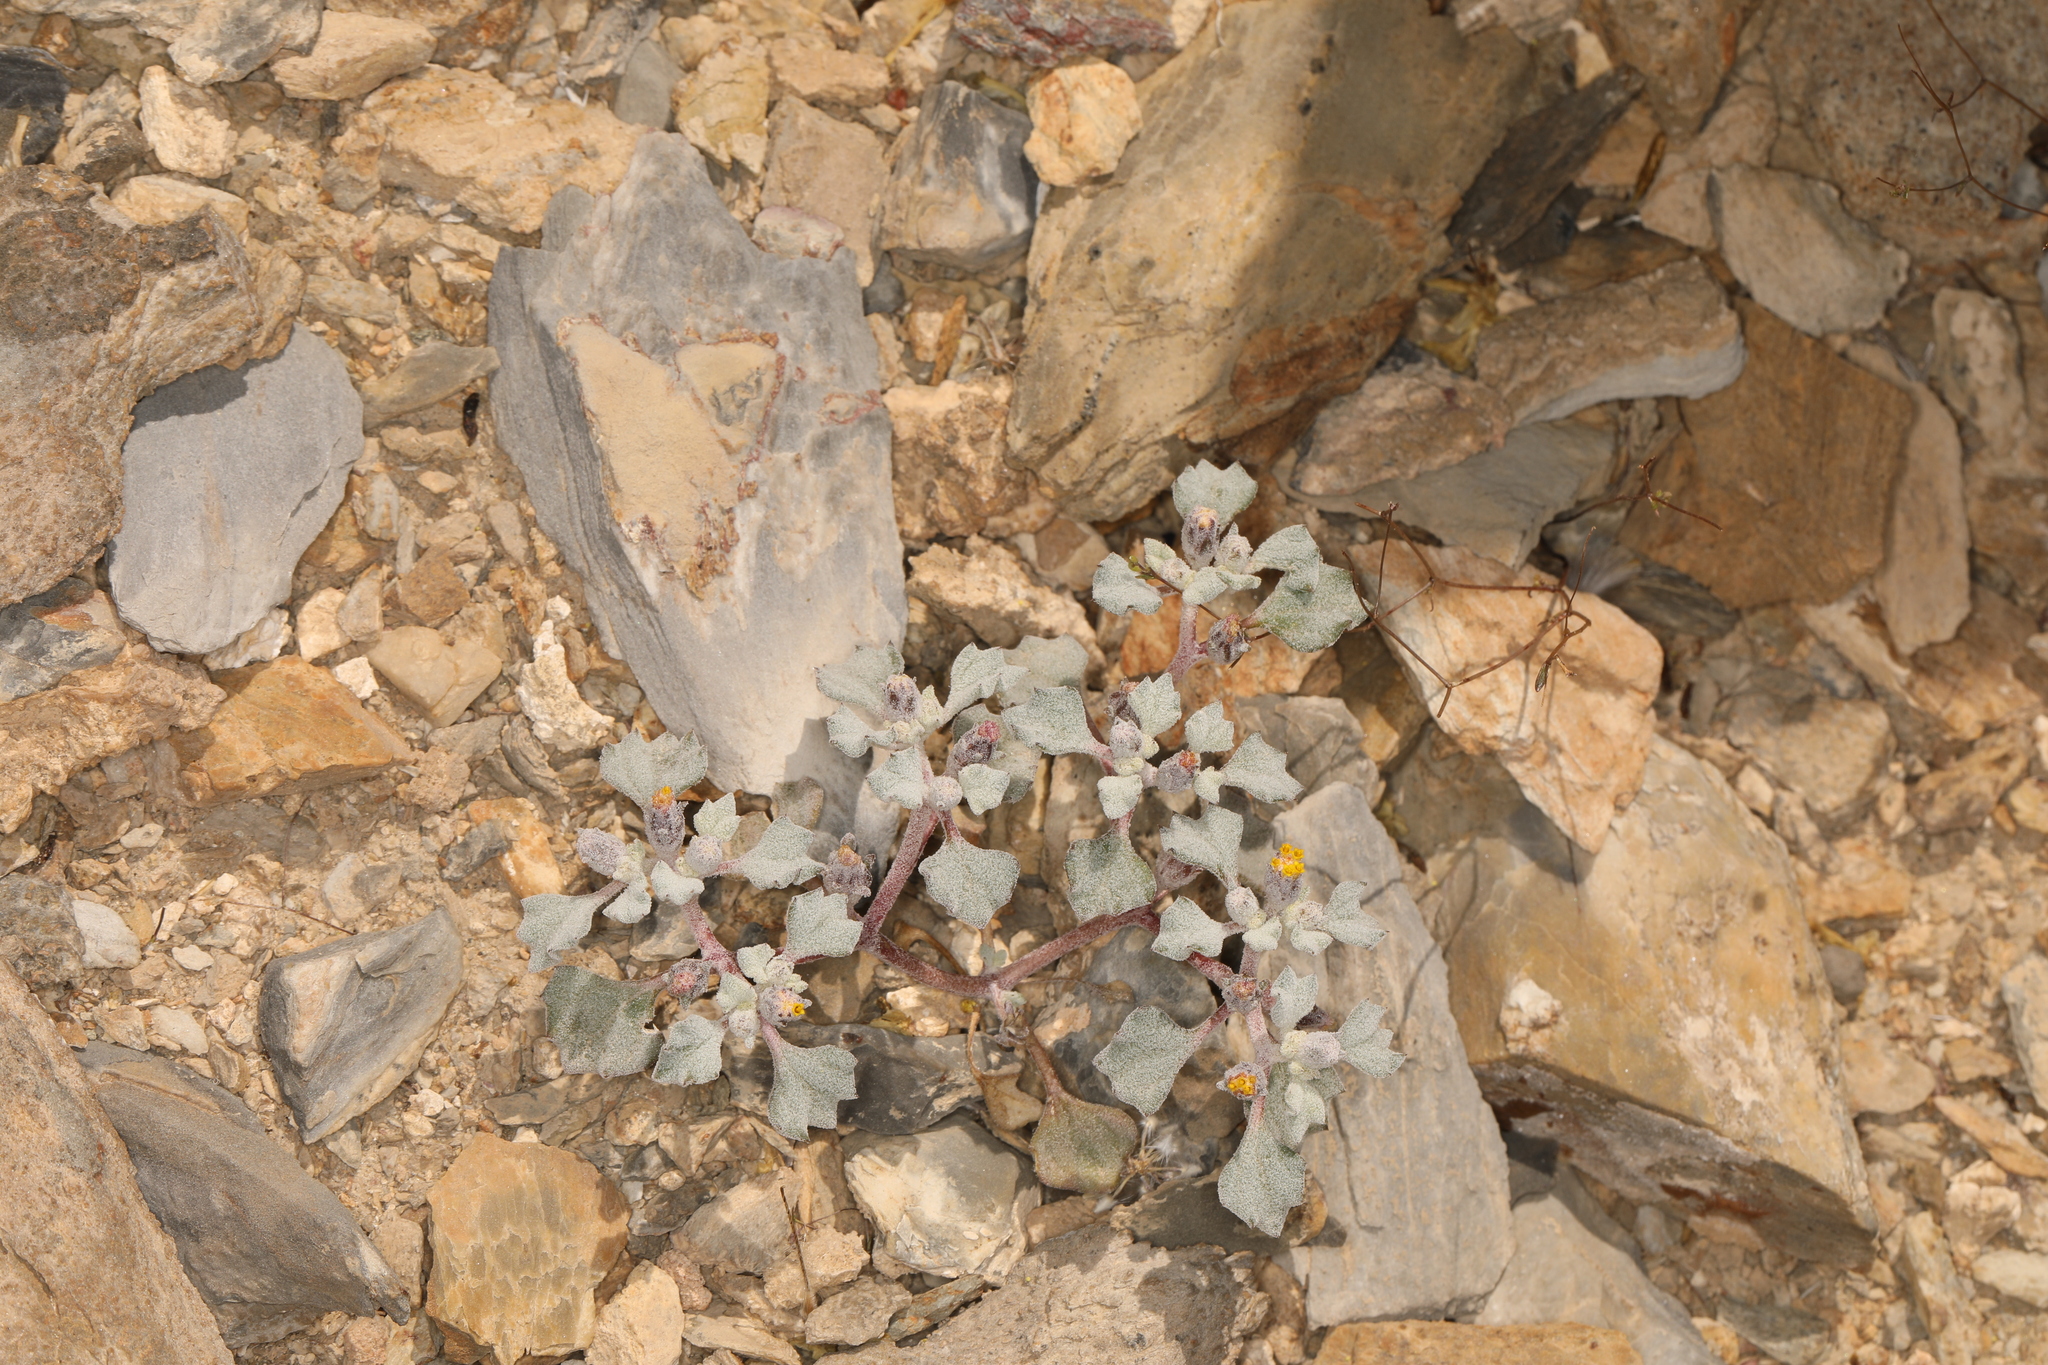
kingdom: Plantae
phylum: Tracheophyta
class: Magnoliopsida
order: Asterales
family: Asteraceae
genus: Psathyrotes
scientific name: Psathyrotes annua
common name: Mealy rosettes
